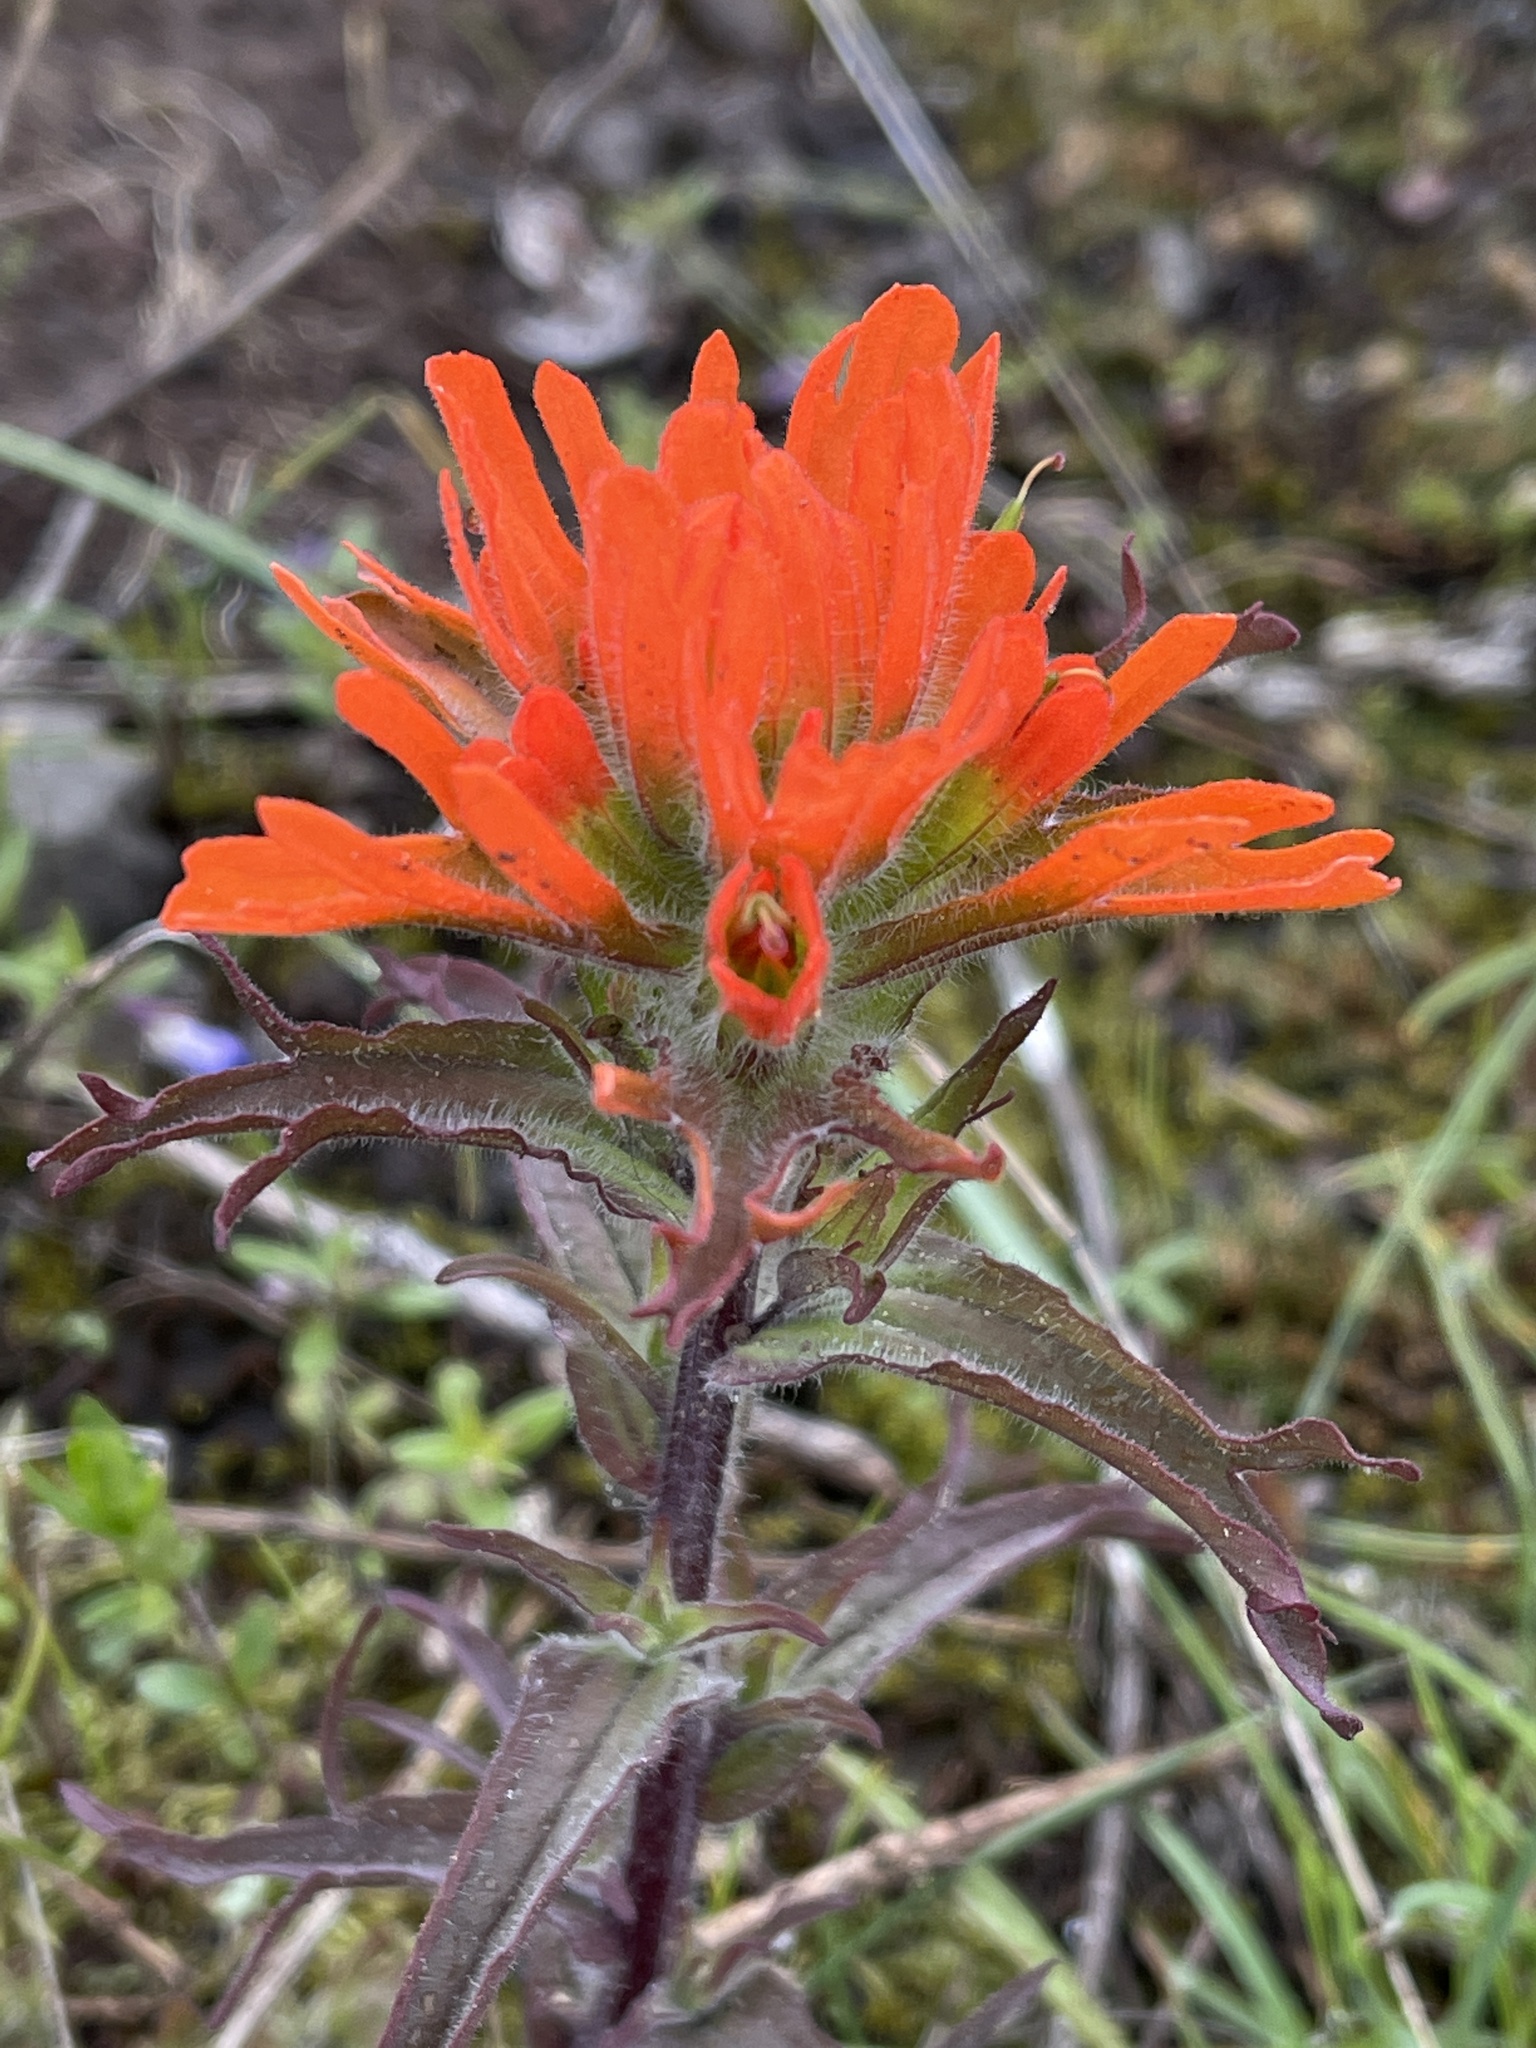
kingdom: Plantae
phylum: Tracheophyta
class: Magnoliopsida
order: Lamiales
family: Orobanchaceae
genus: Castilleja
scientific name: Castilleja hispida
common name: Bristly paintbrush
